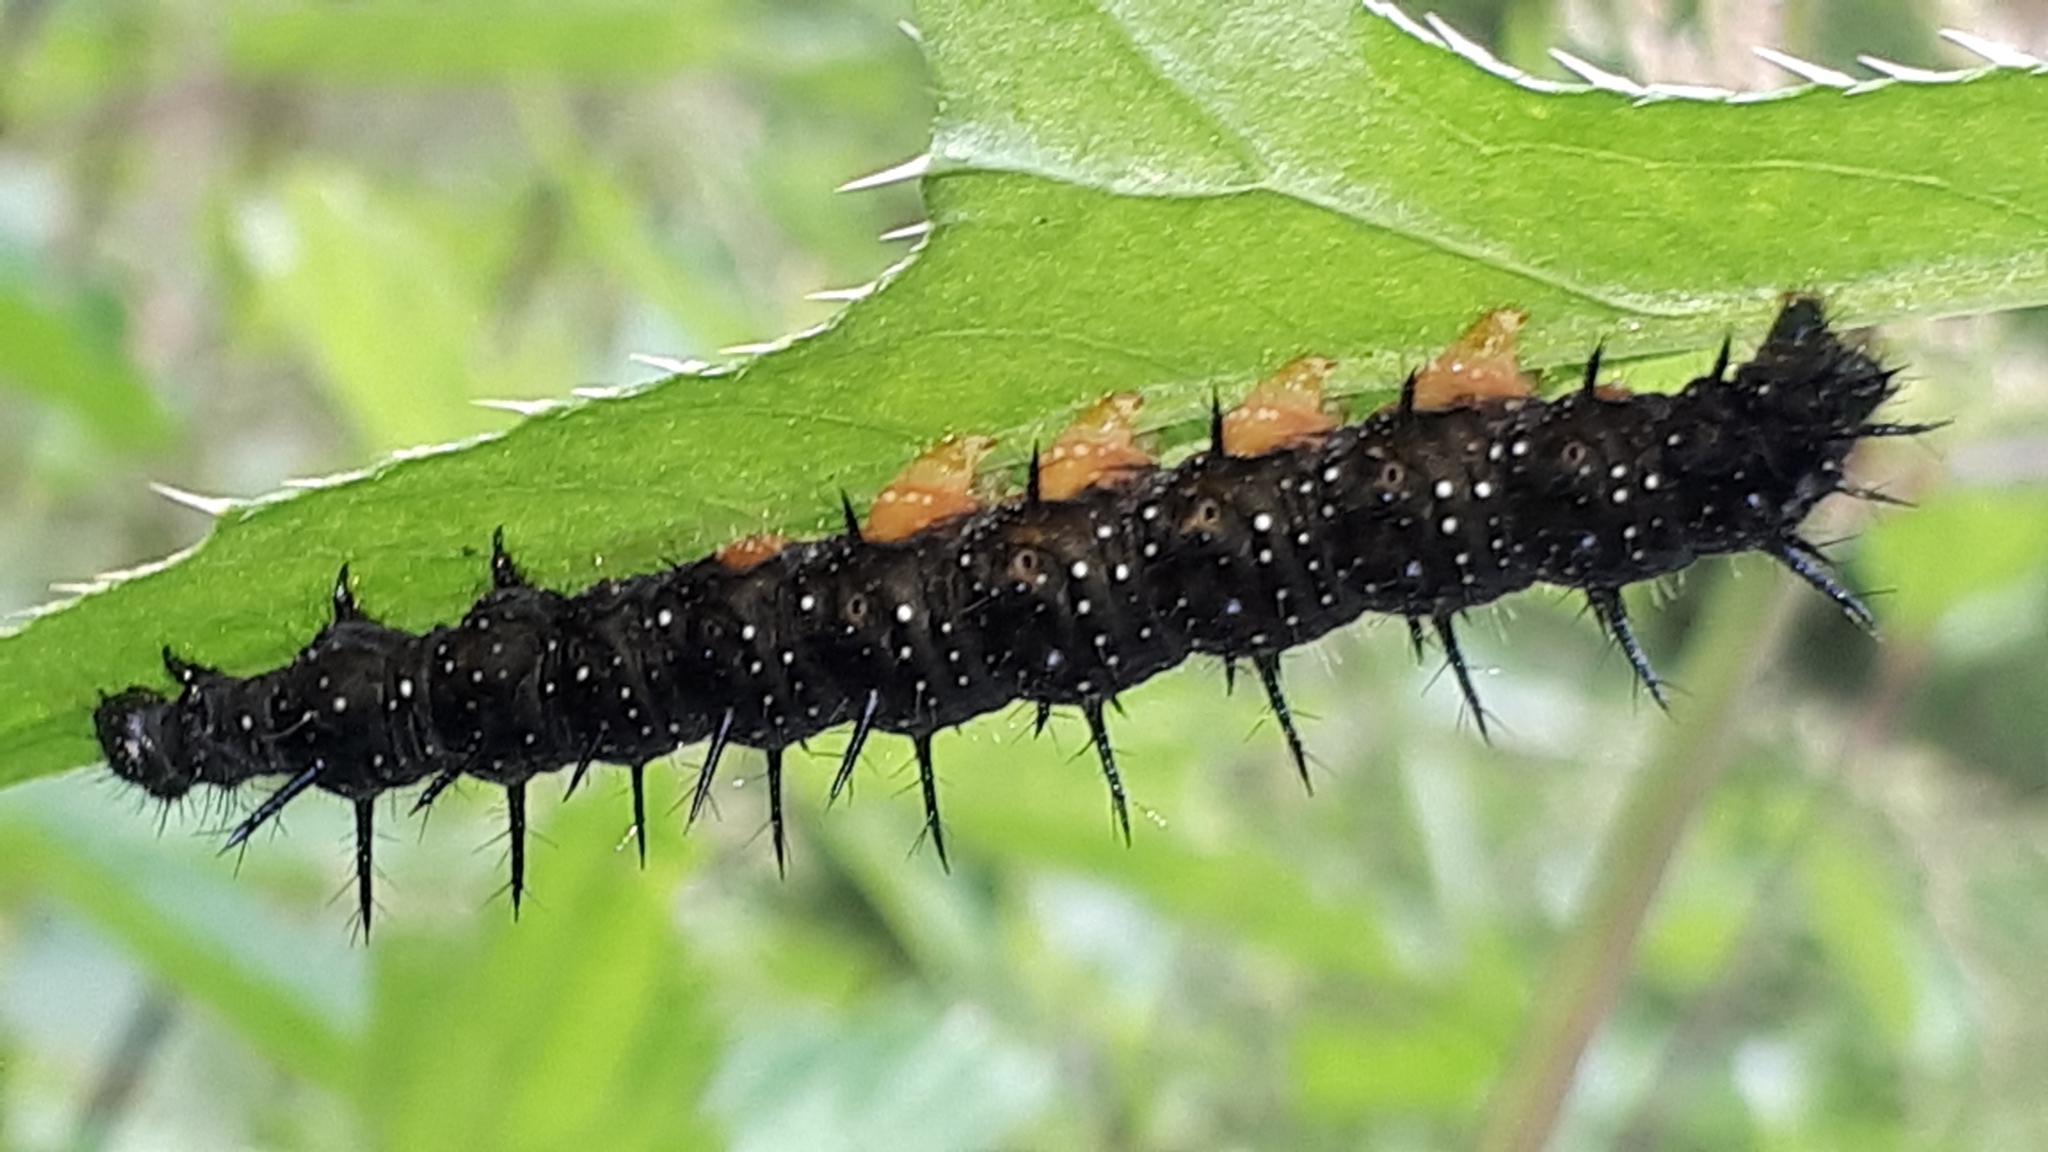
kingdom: Animalia
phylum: Arthropoda
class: Insecta
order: Lepidoptera
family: Nymphalidae
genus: Aglais
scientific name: Aglais io
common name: Peacock
